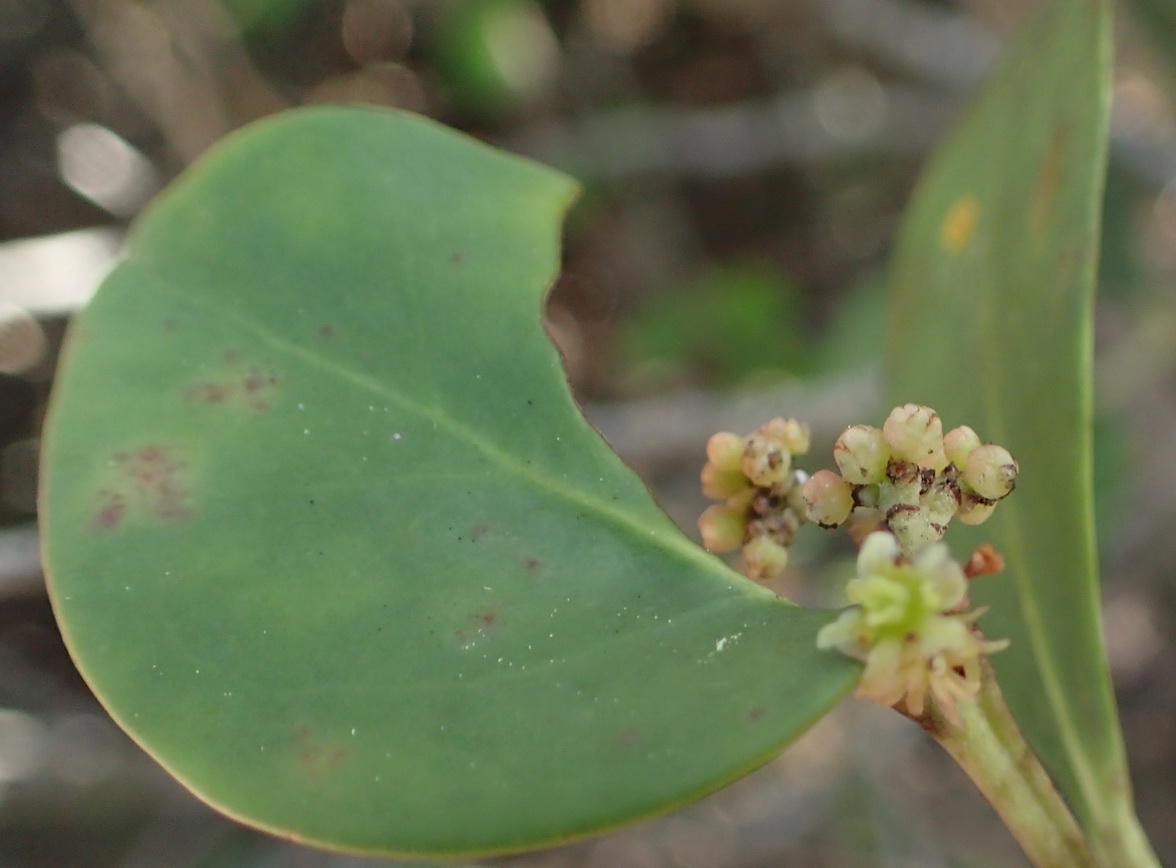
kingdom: Plantae
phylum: Tracheophyta
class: Magnoliopsida
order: Celastrales
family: Celastraceae
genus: Pterocelastrus
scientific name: Pterocelastrus tricuspidatus
